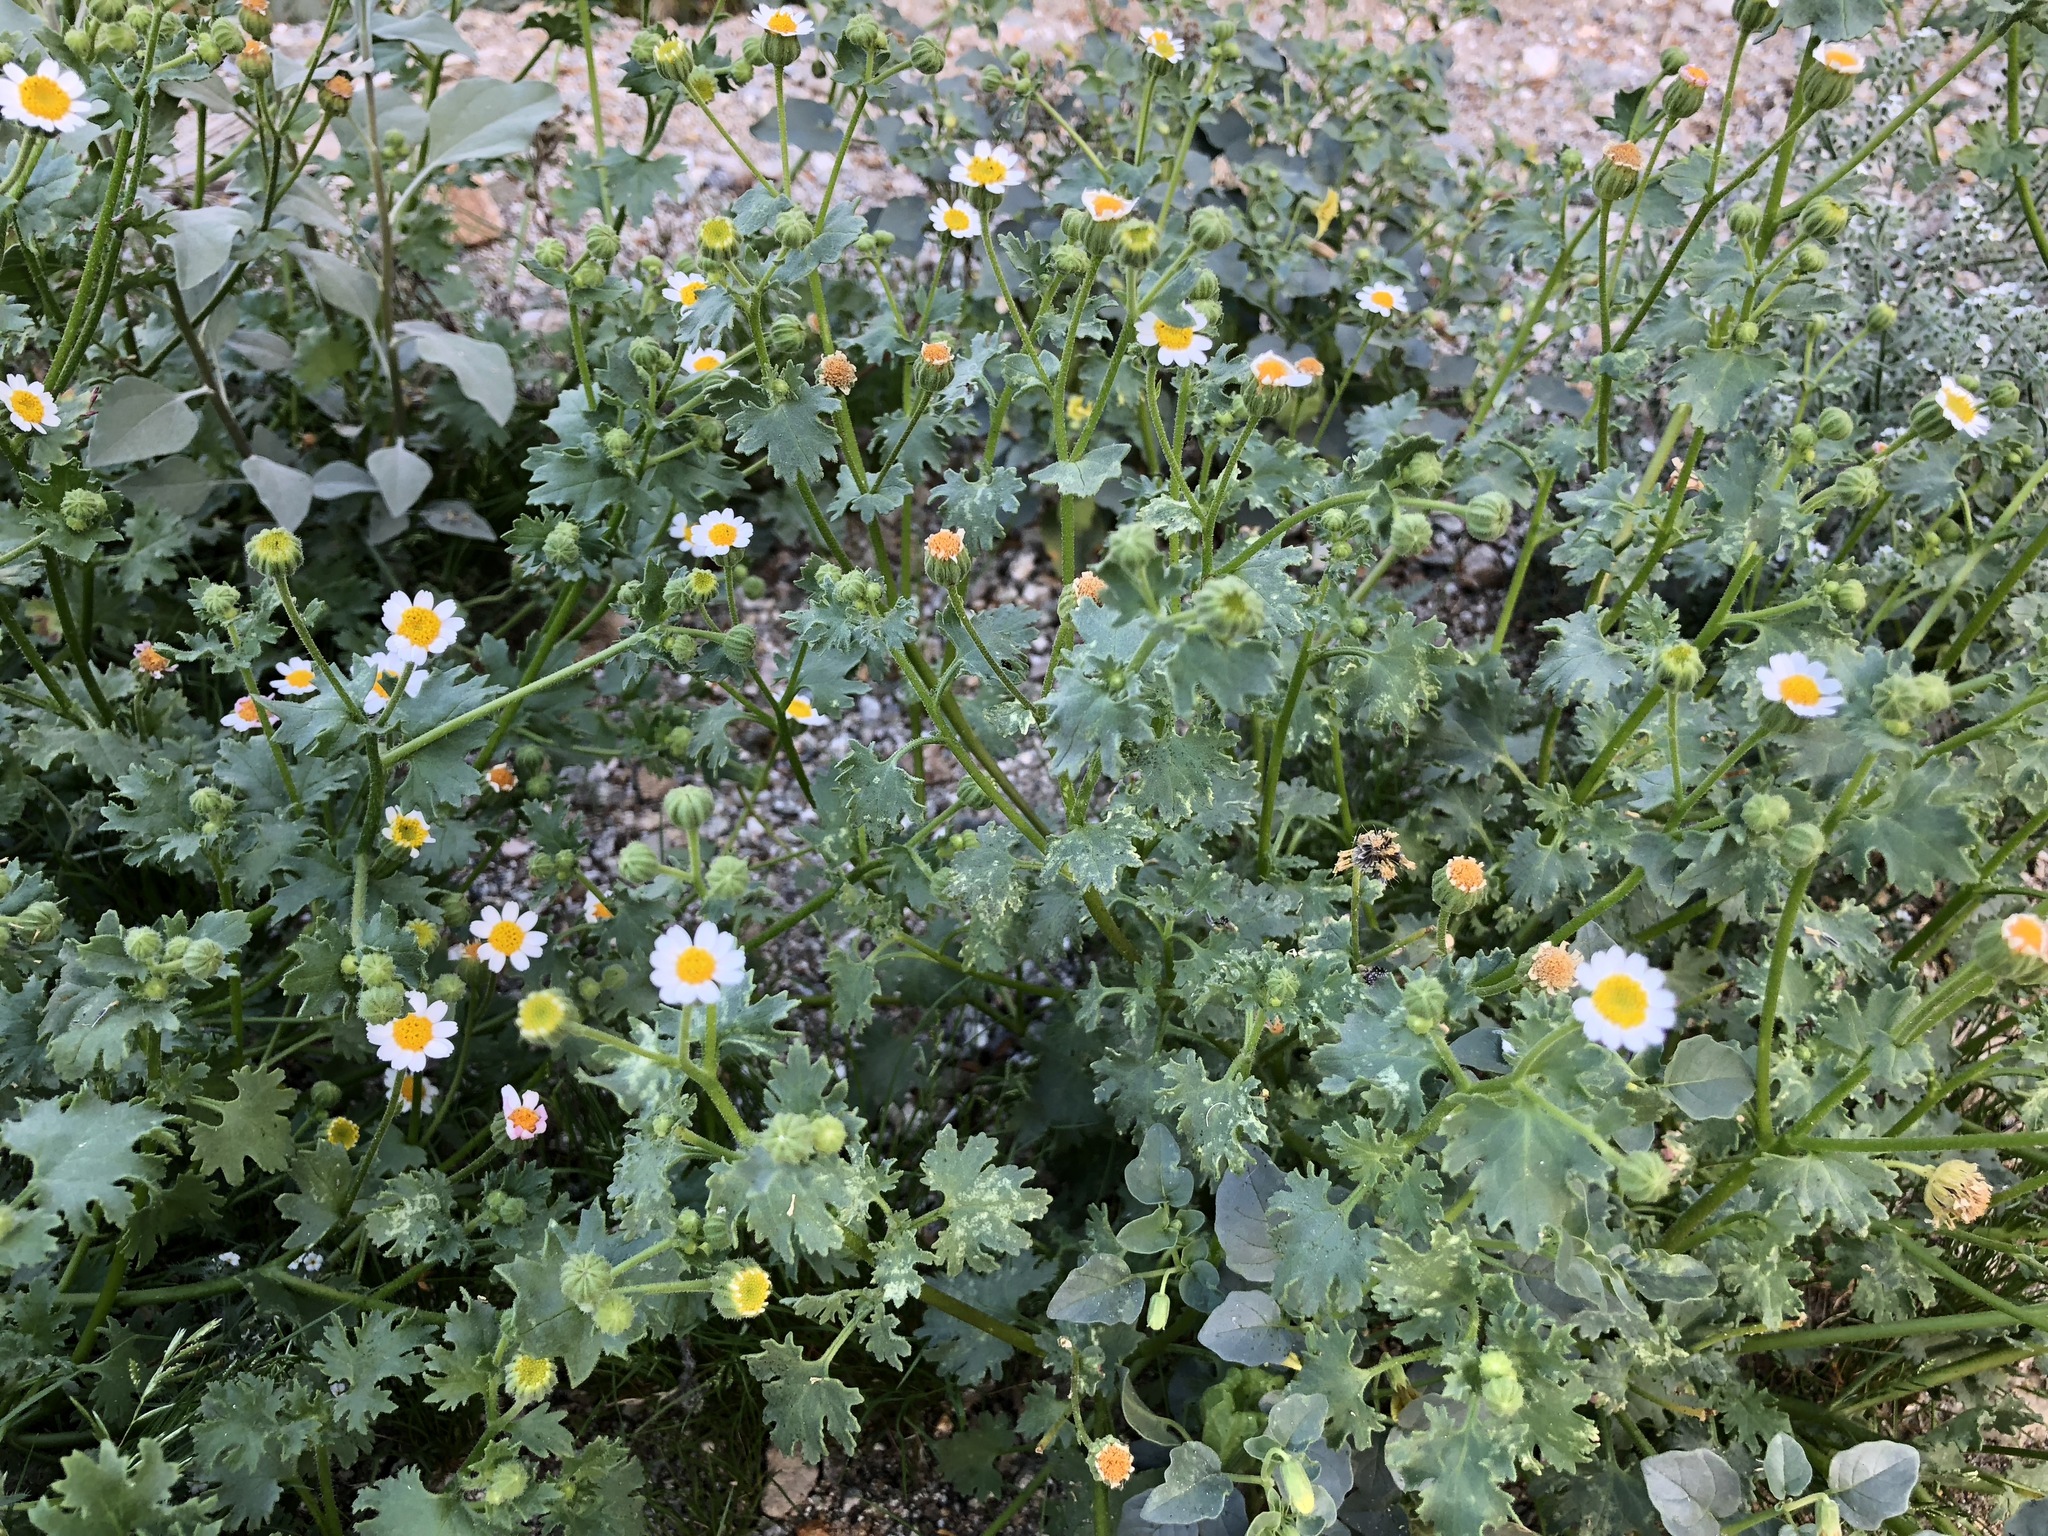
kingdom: Plantae
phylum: Tracheophyta
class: Magnoliopsida
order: Asterales
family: Asteraceae
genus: Laphamia
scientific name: Laphamia emoryi
